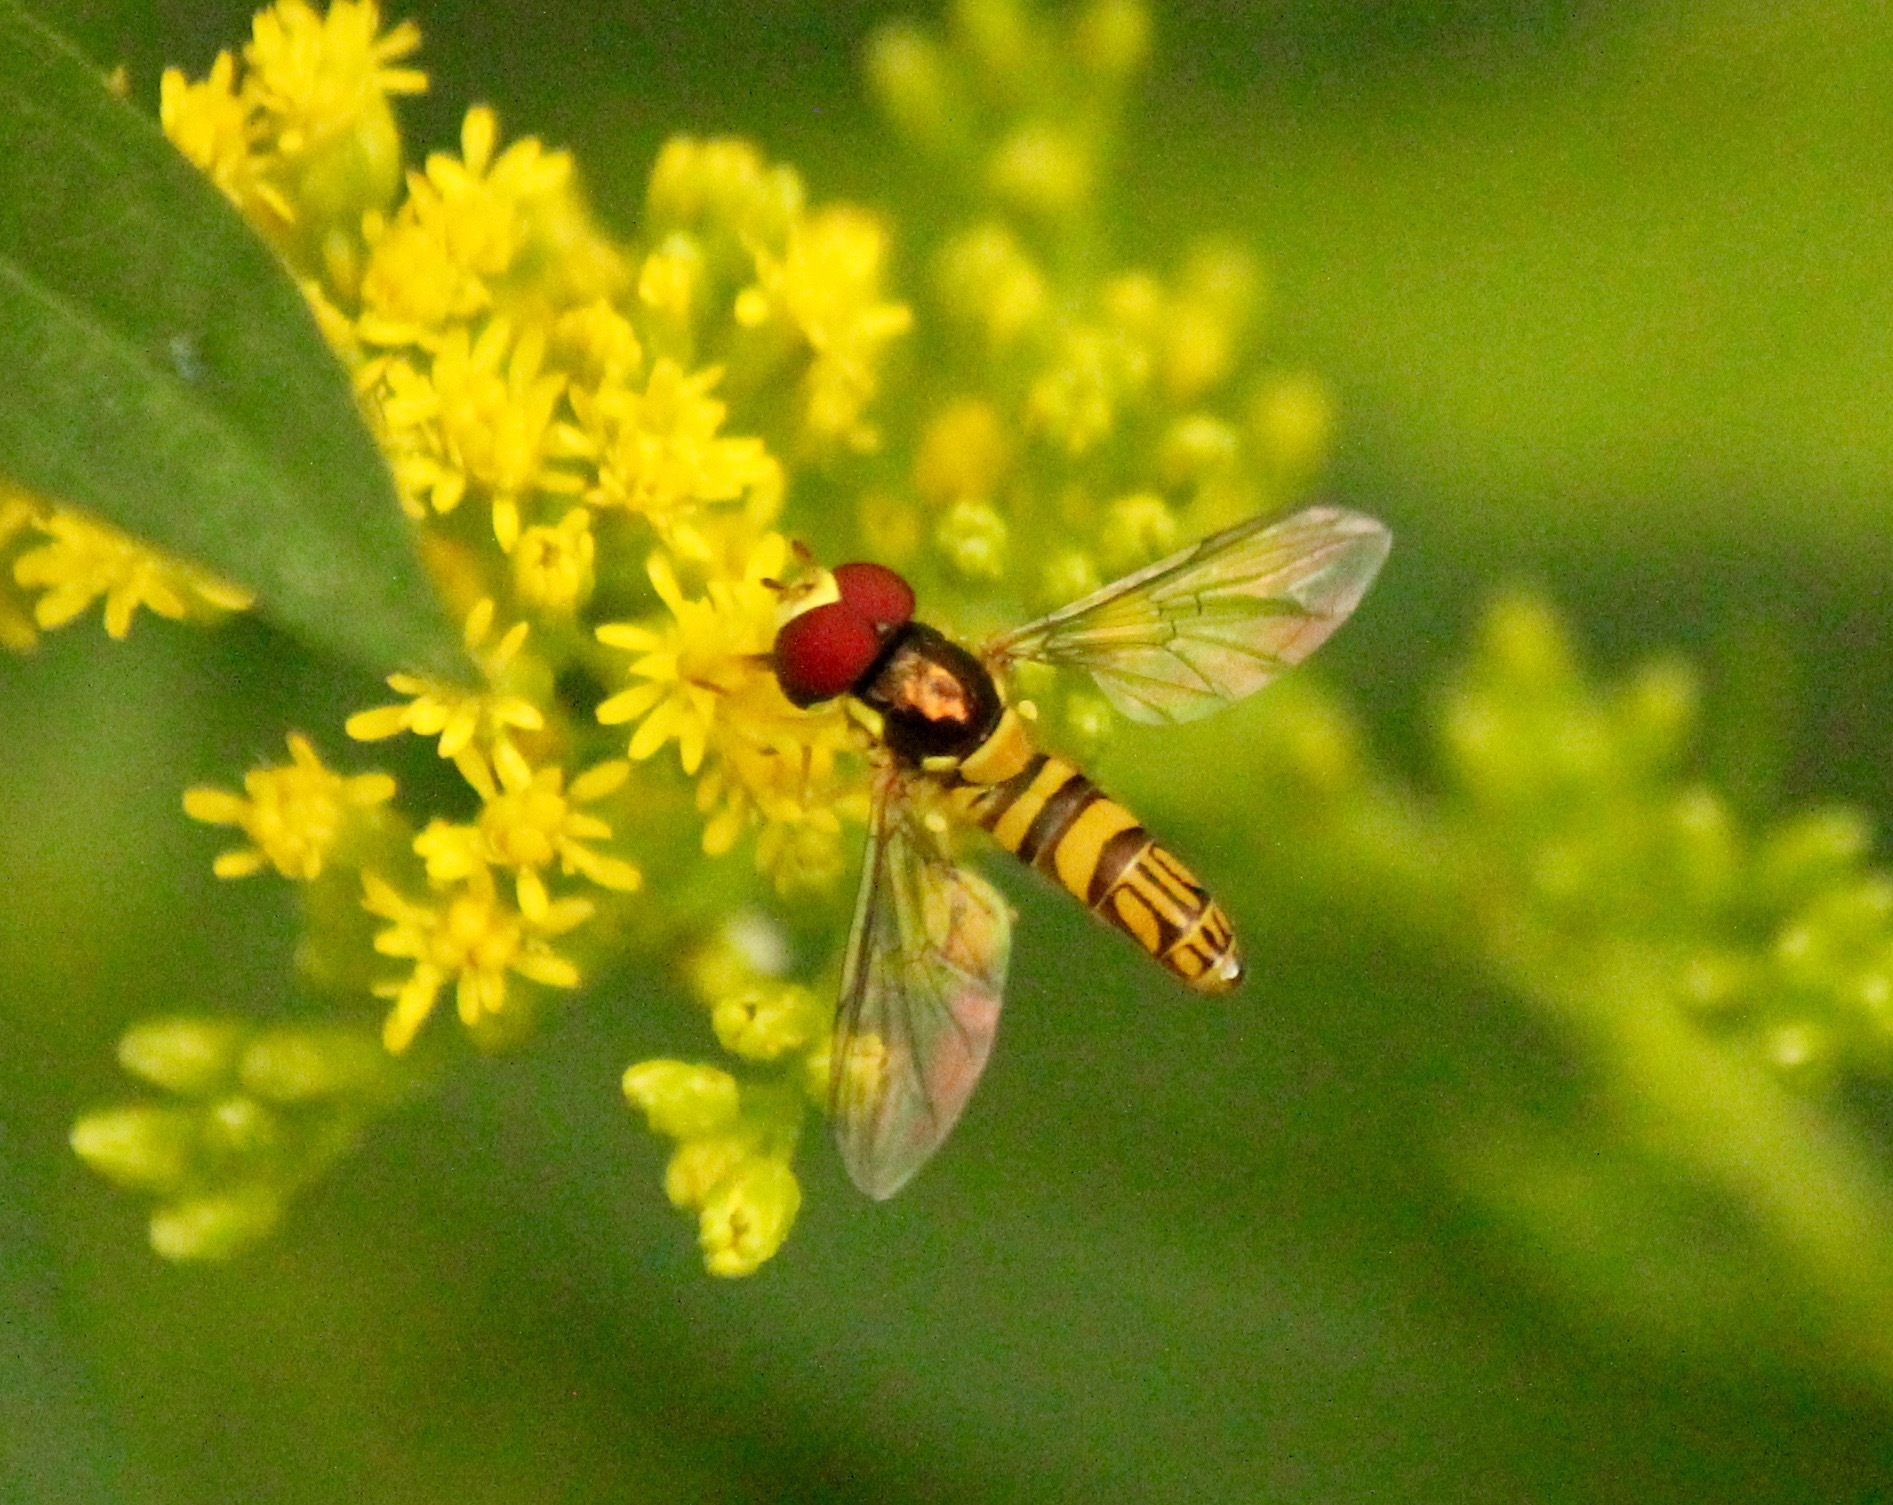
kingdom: Animalia
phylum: Arthropoda
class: Insecta
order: Diptera
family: Syrphidae
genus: Allograpta
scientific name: Allograpta obliqua
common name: Common oblique syrphid
